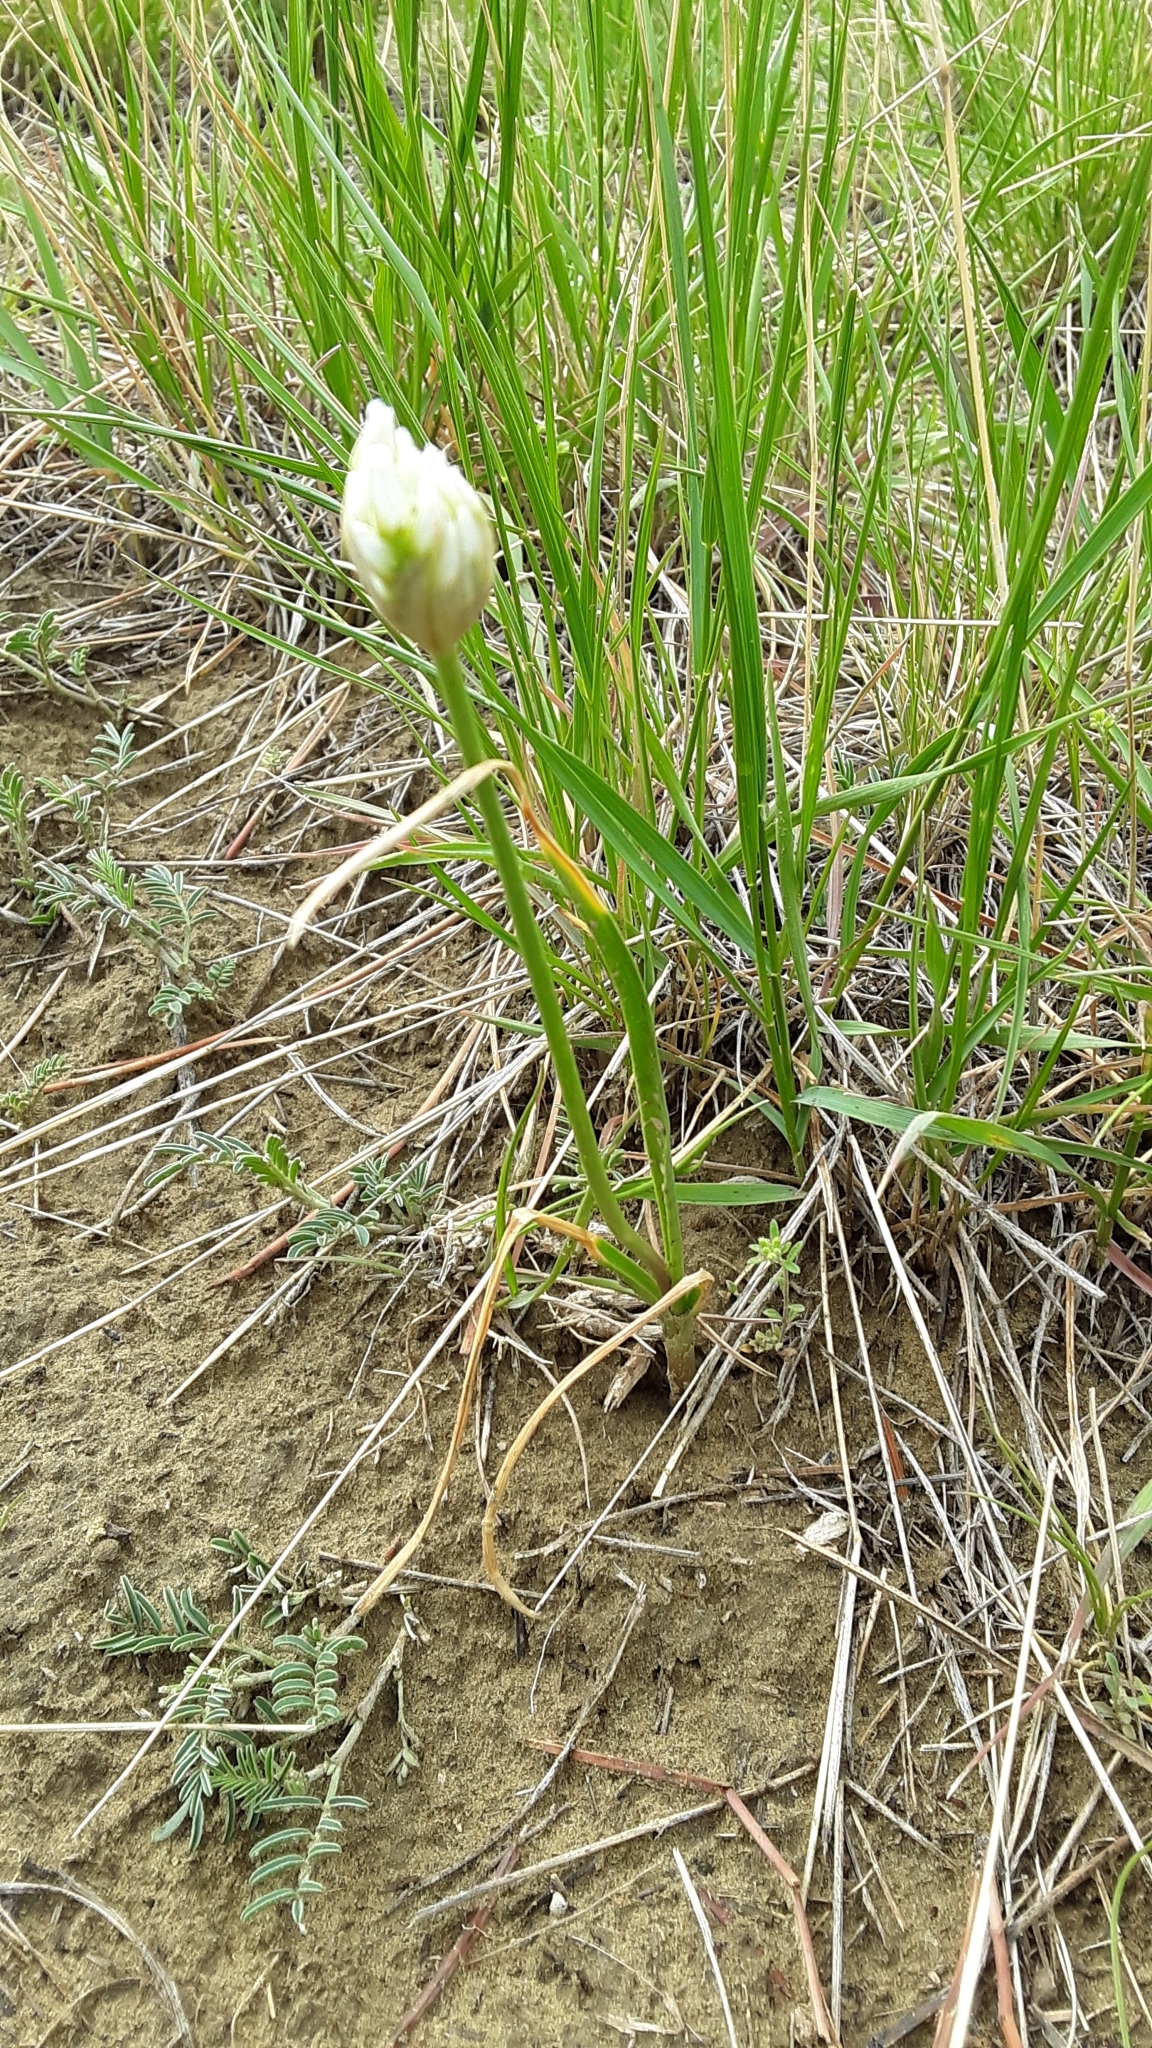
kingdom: Plantae
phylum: Tracheophyta
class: Liliopsida
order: Asparagales
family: Amaryllidaceae
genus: Allium
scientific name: Allium textile
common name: Prairie onion
